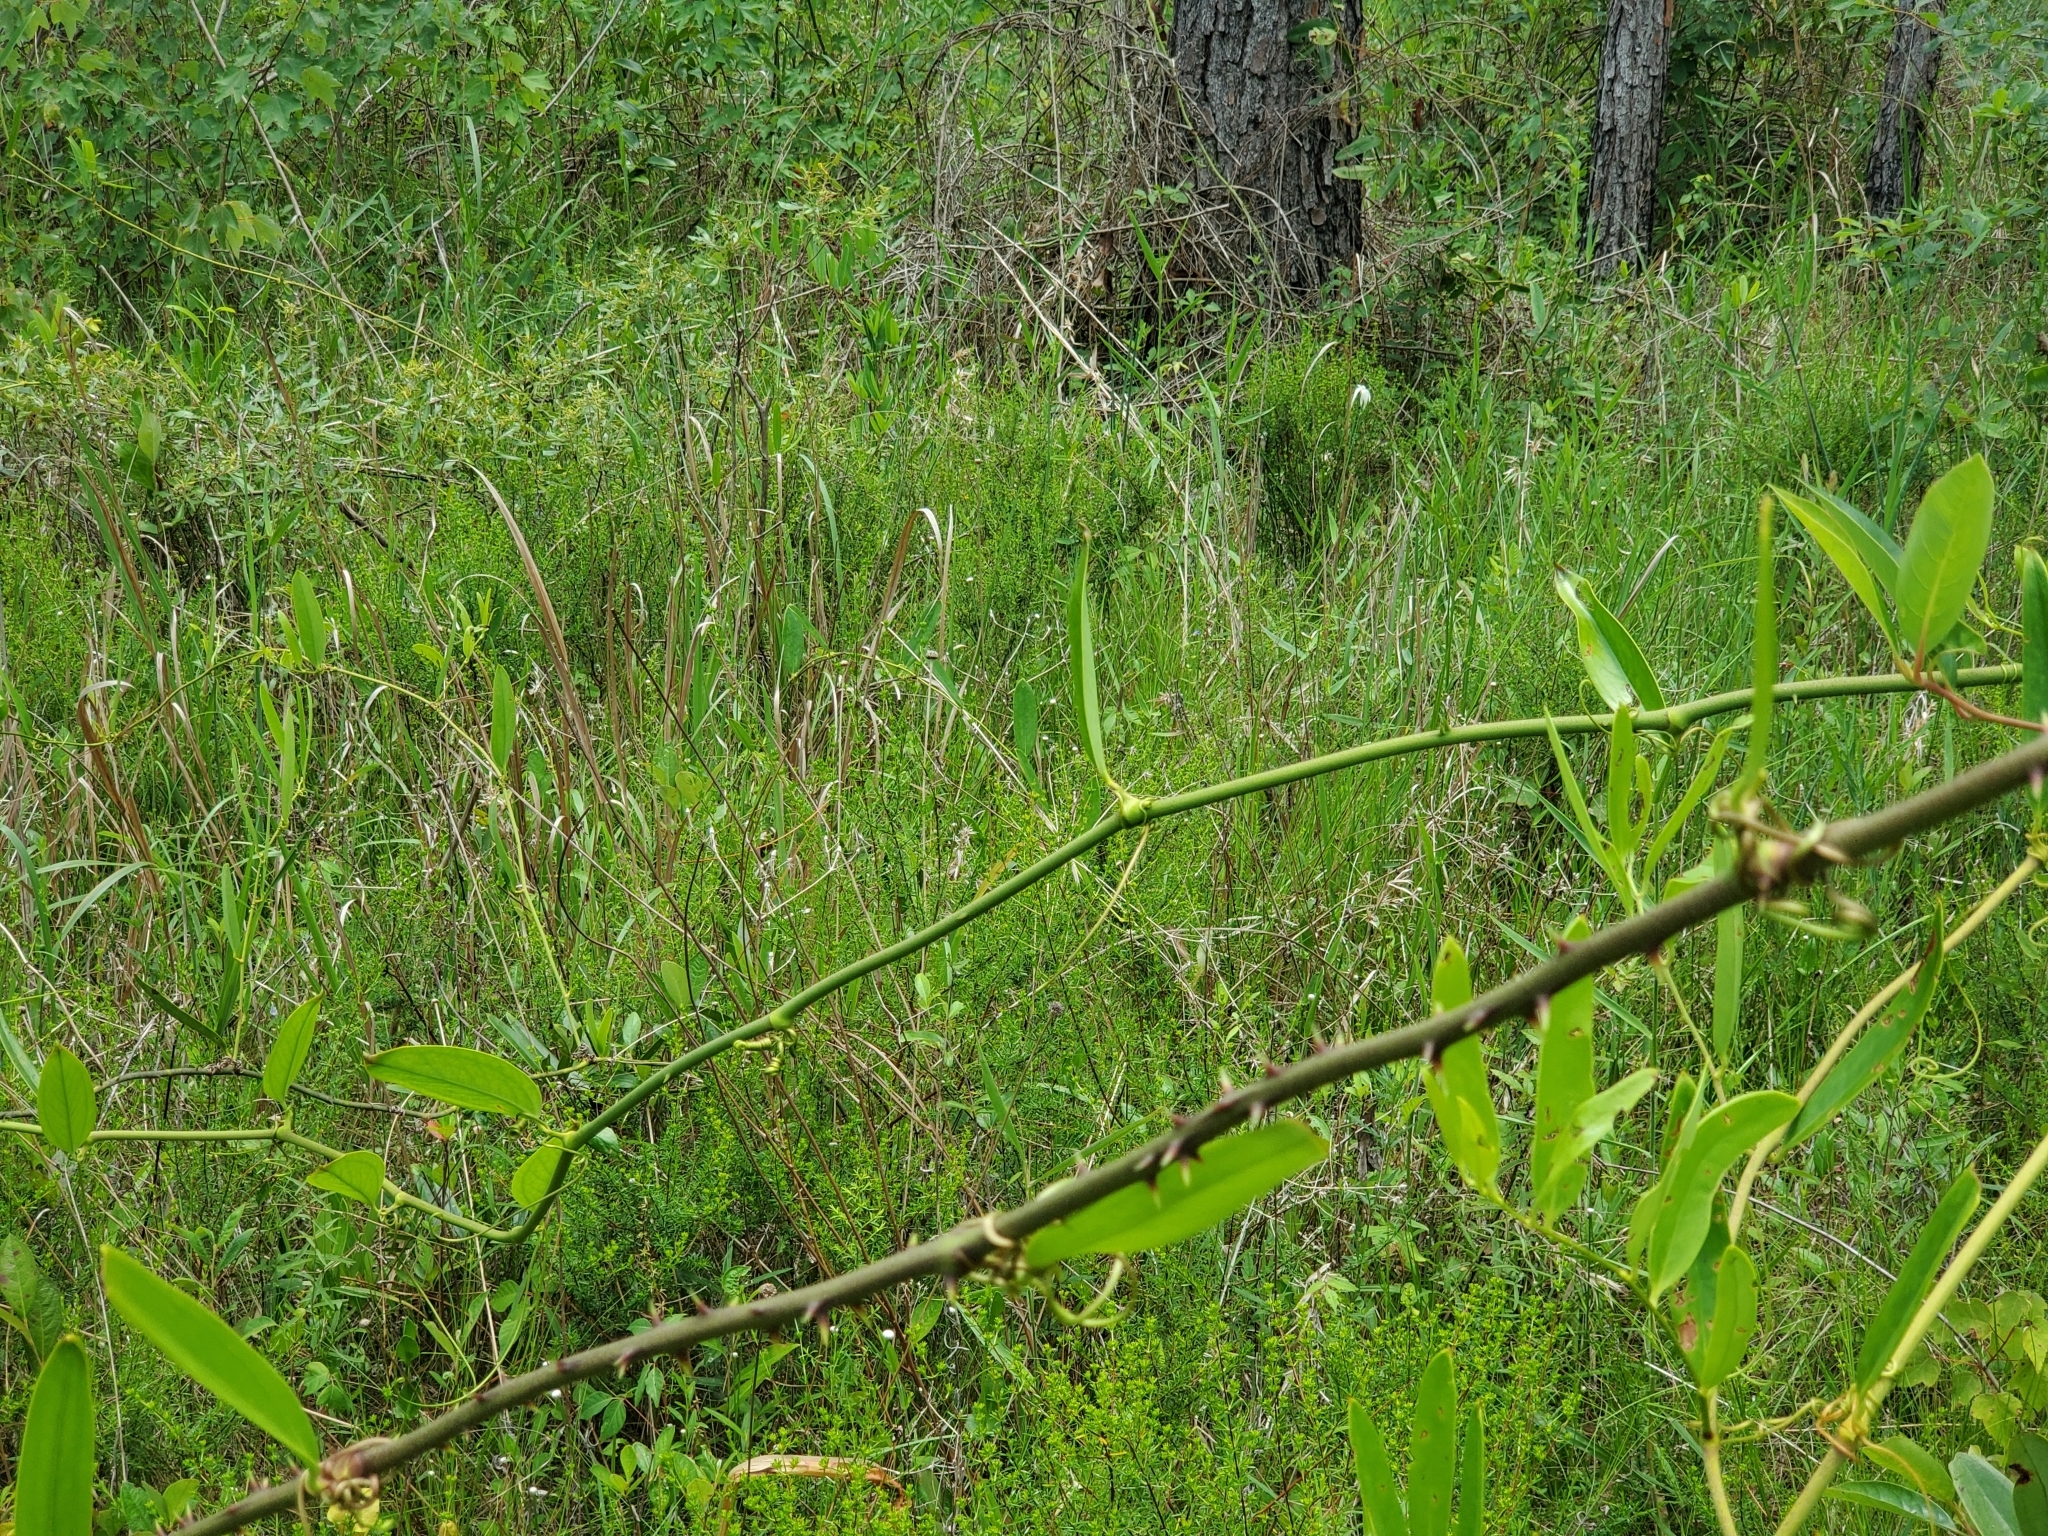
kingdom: Plantae
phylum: Tracheophyta
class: Liliopsida
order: Liliales
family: Smilacaceae
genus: Smilax
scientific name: Smilax laurifolia
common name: Bamboovine
